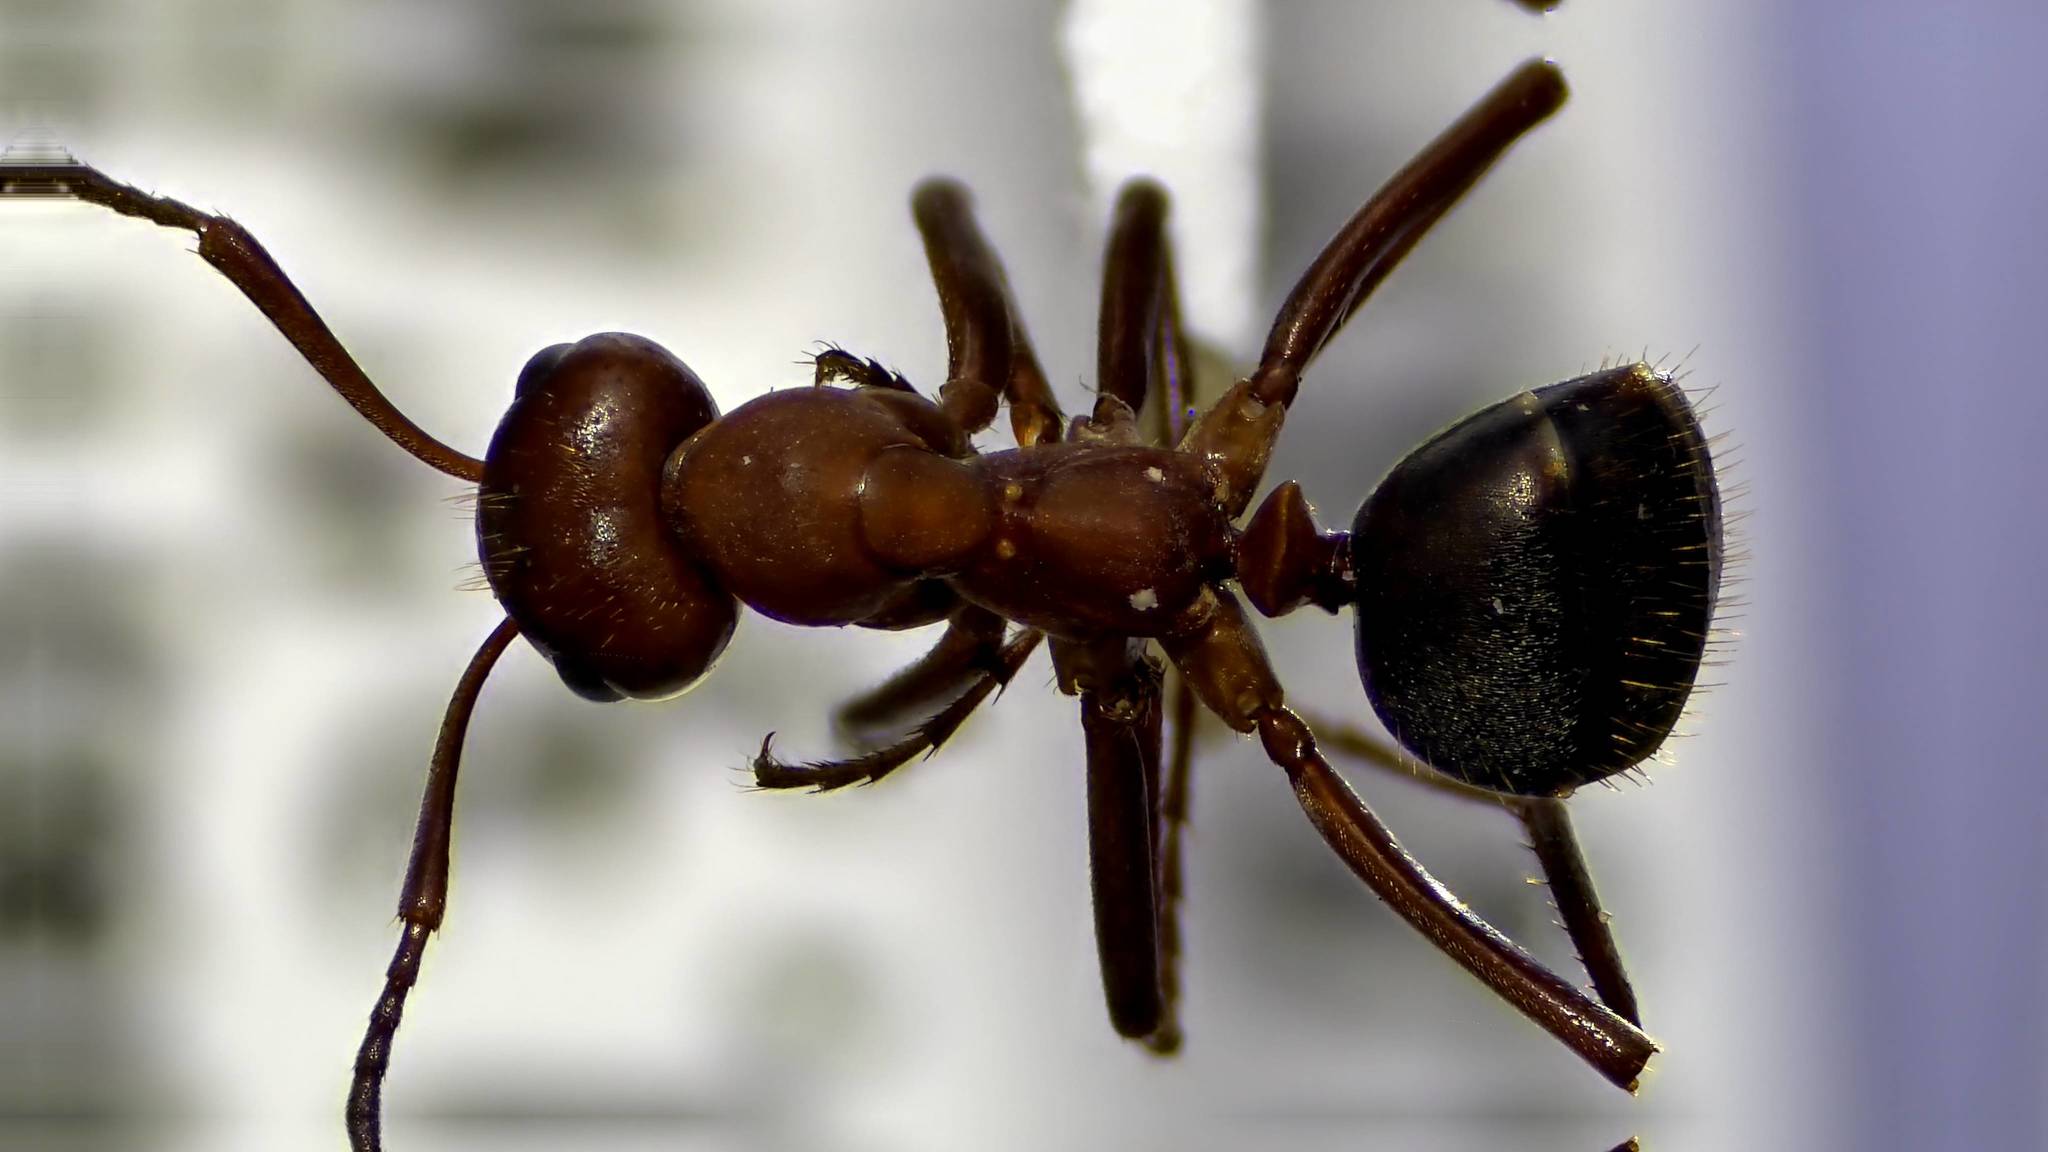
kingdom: Animalia
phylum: Arthropoda
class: Insecta
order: Hymenoptera
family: Formicidae
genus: Formica
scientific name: Formica pergandei
